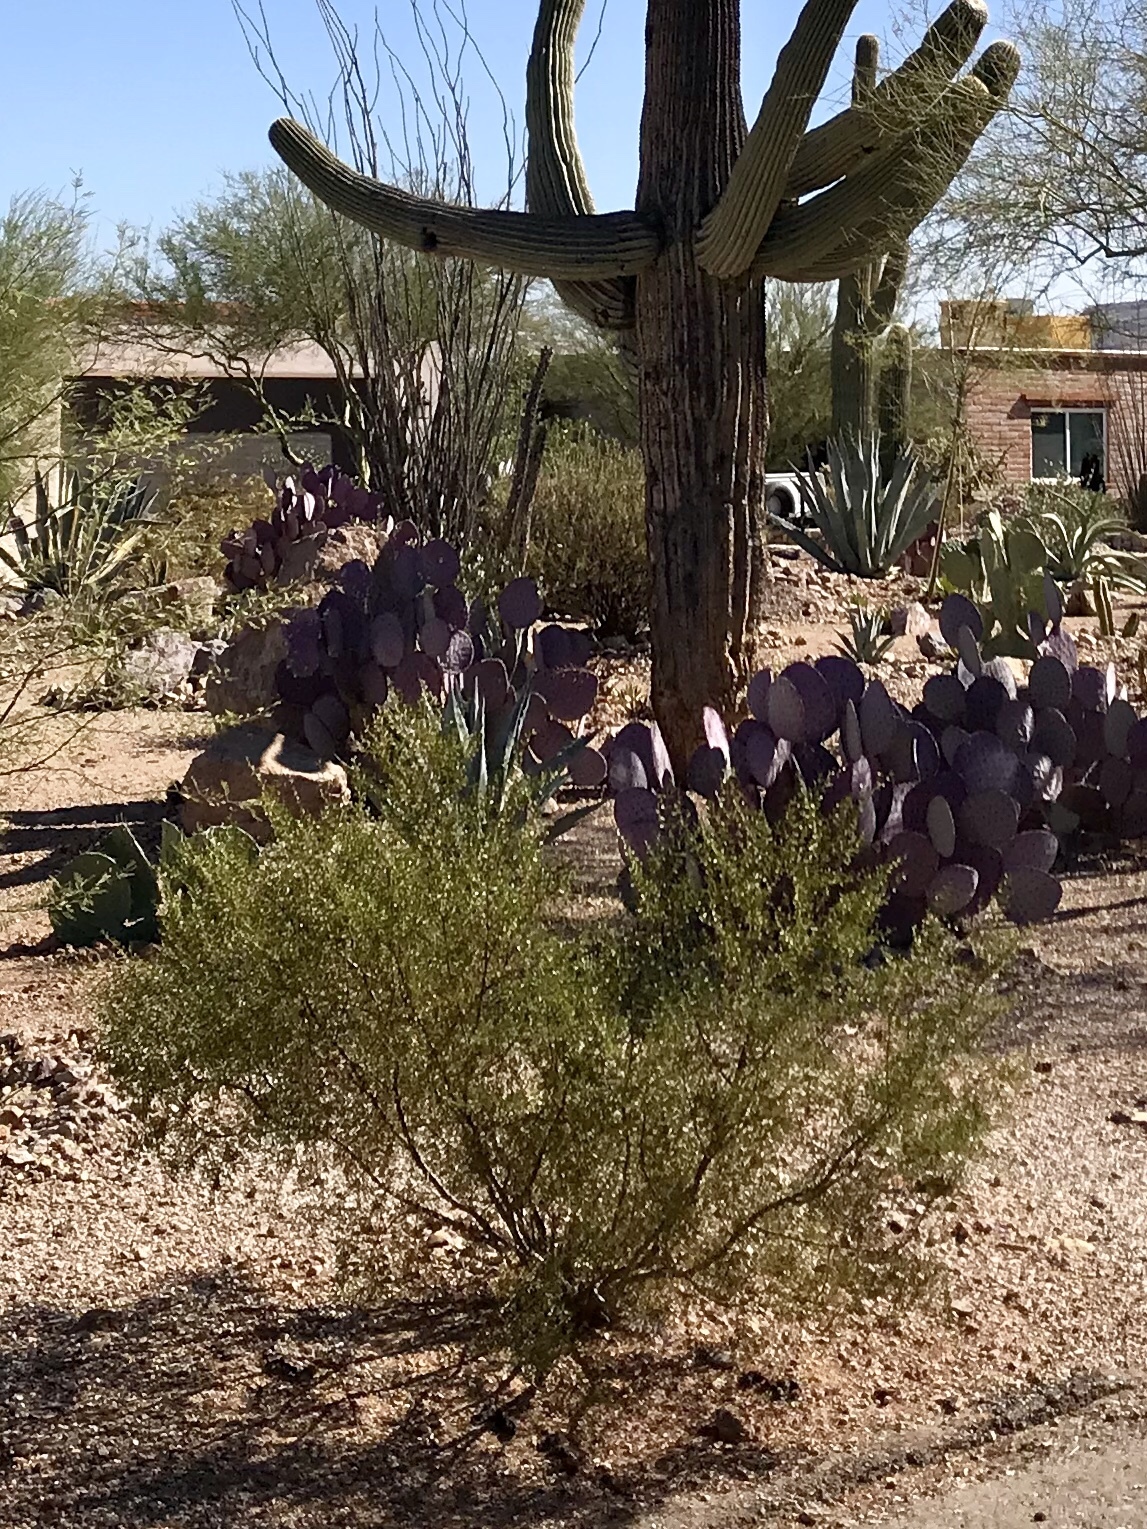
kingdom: Plantae
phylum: Tracheophyta
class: Magnoliopsida
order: Zygophyllales
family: Zygophyllaceae
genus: Larrea
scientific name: Larrea tridentata
